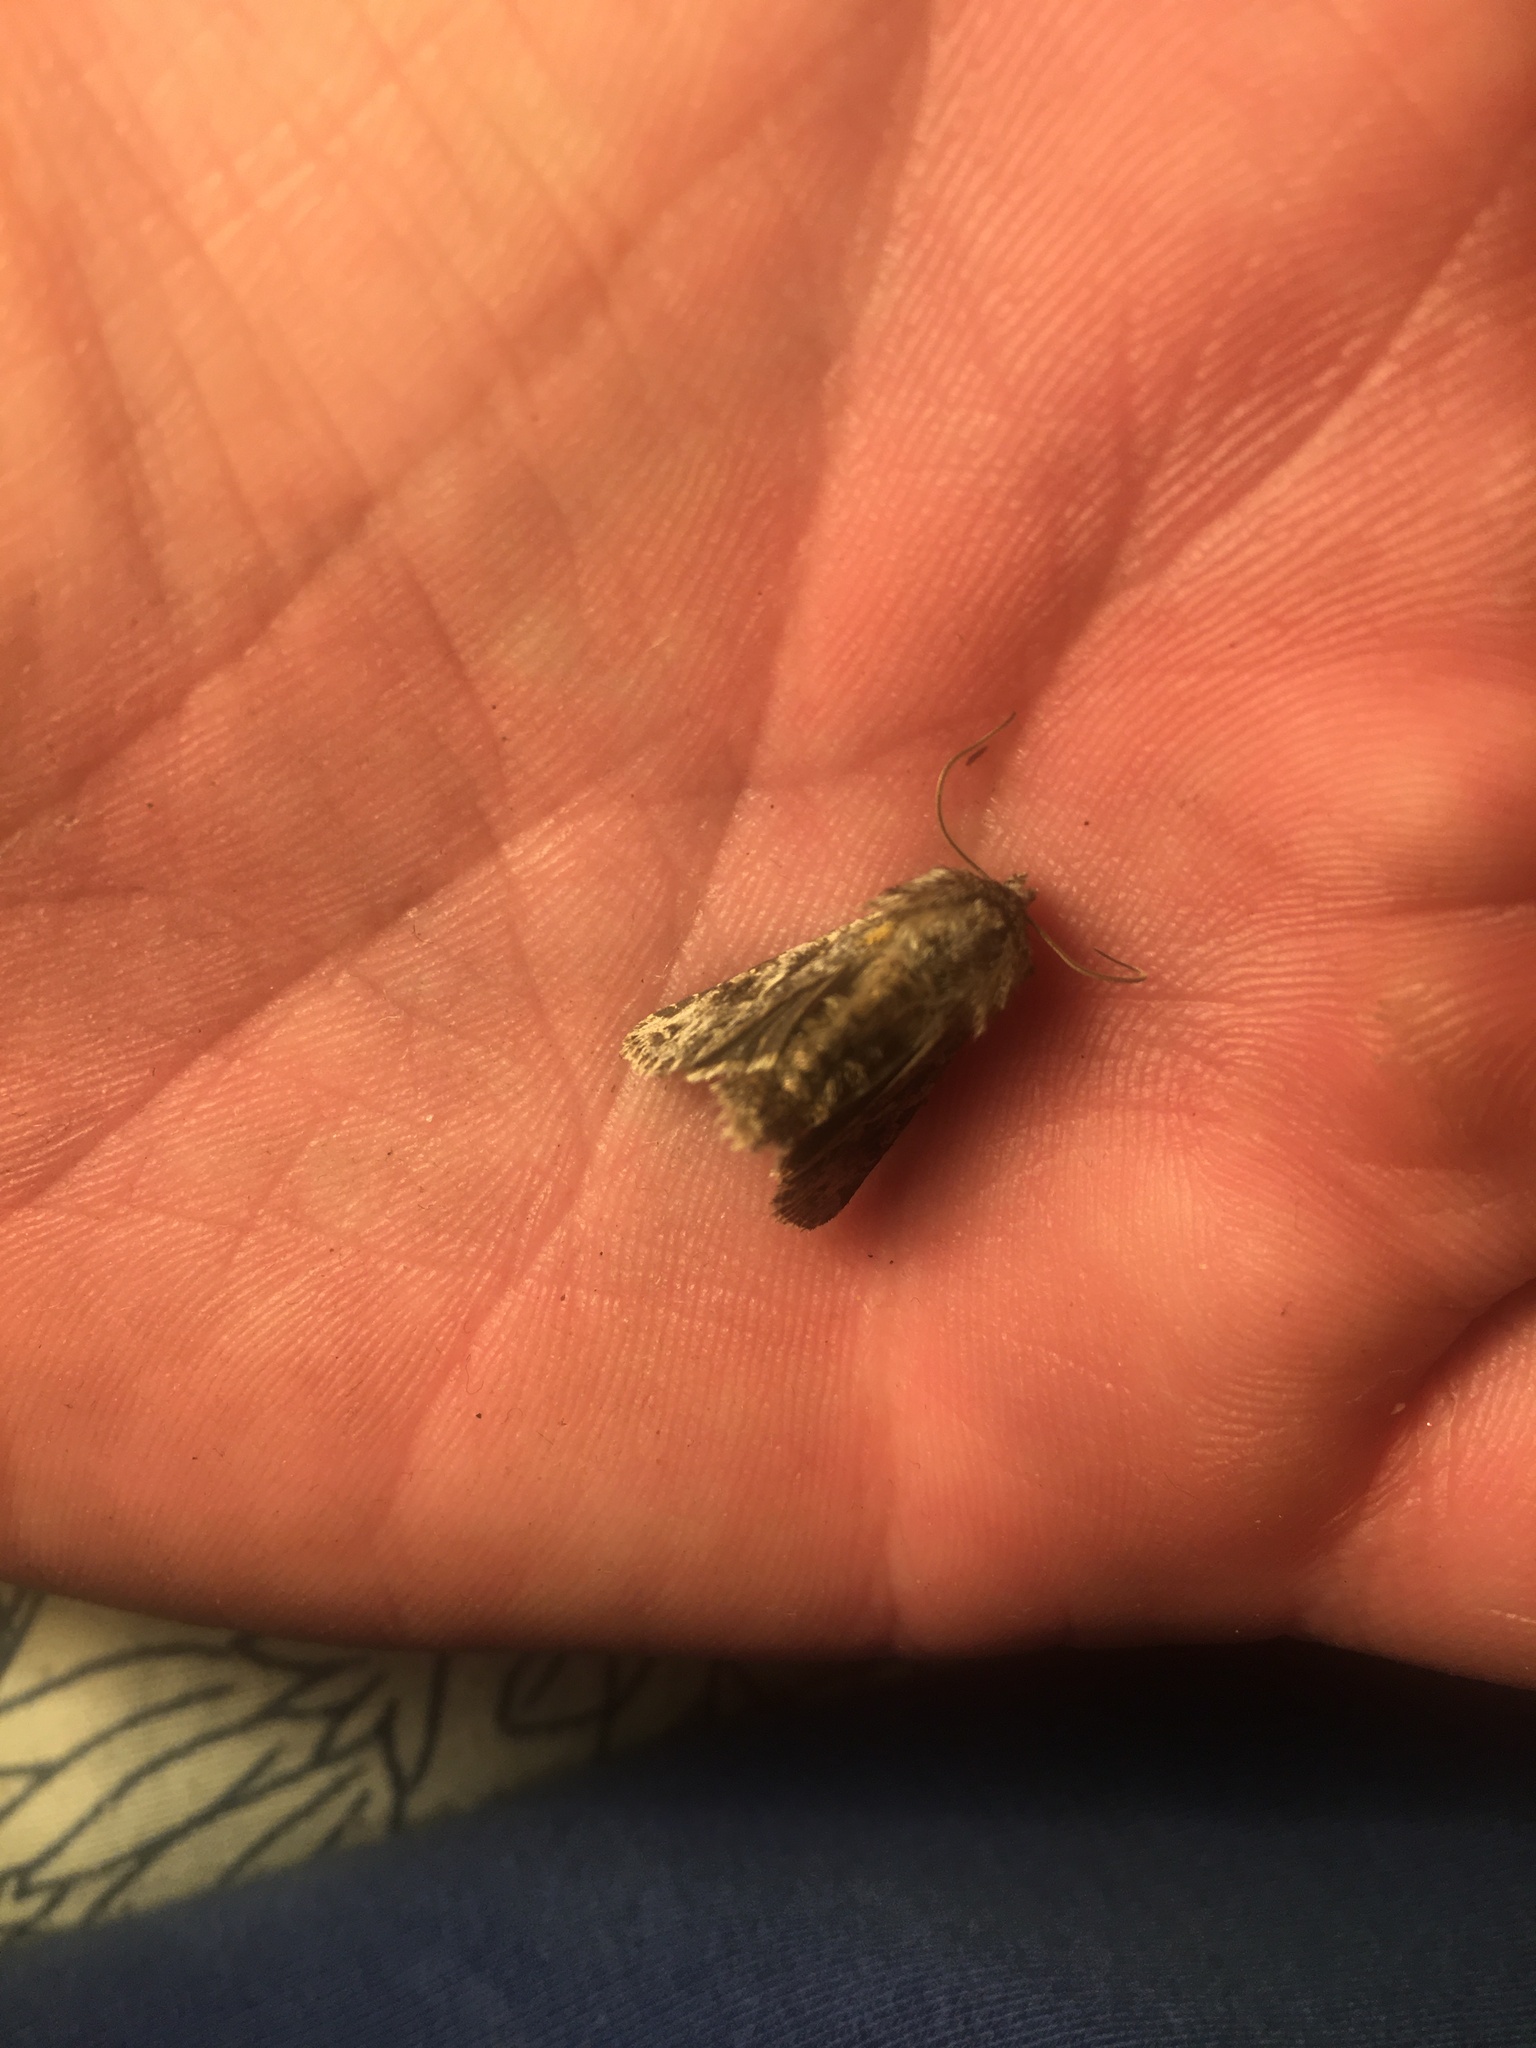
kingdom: Animalia
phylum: Arthropoda
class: Insecta
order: Lepidoptera
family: Noctuidae
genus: Hada
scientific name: Hada plebeja
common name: Shears
